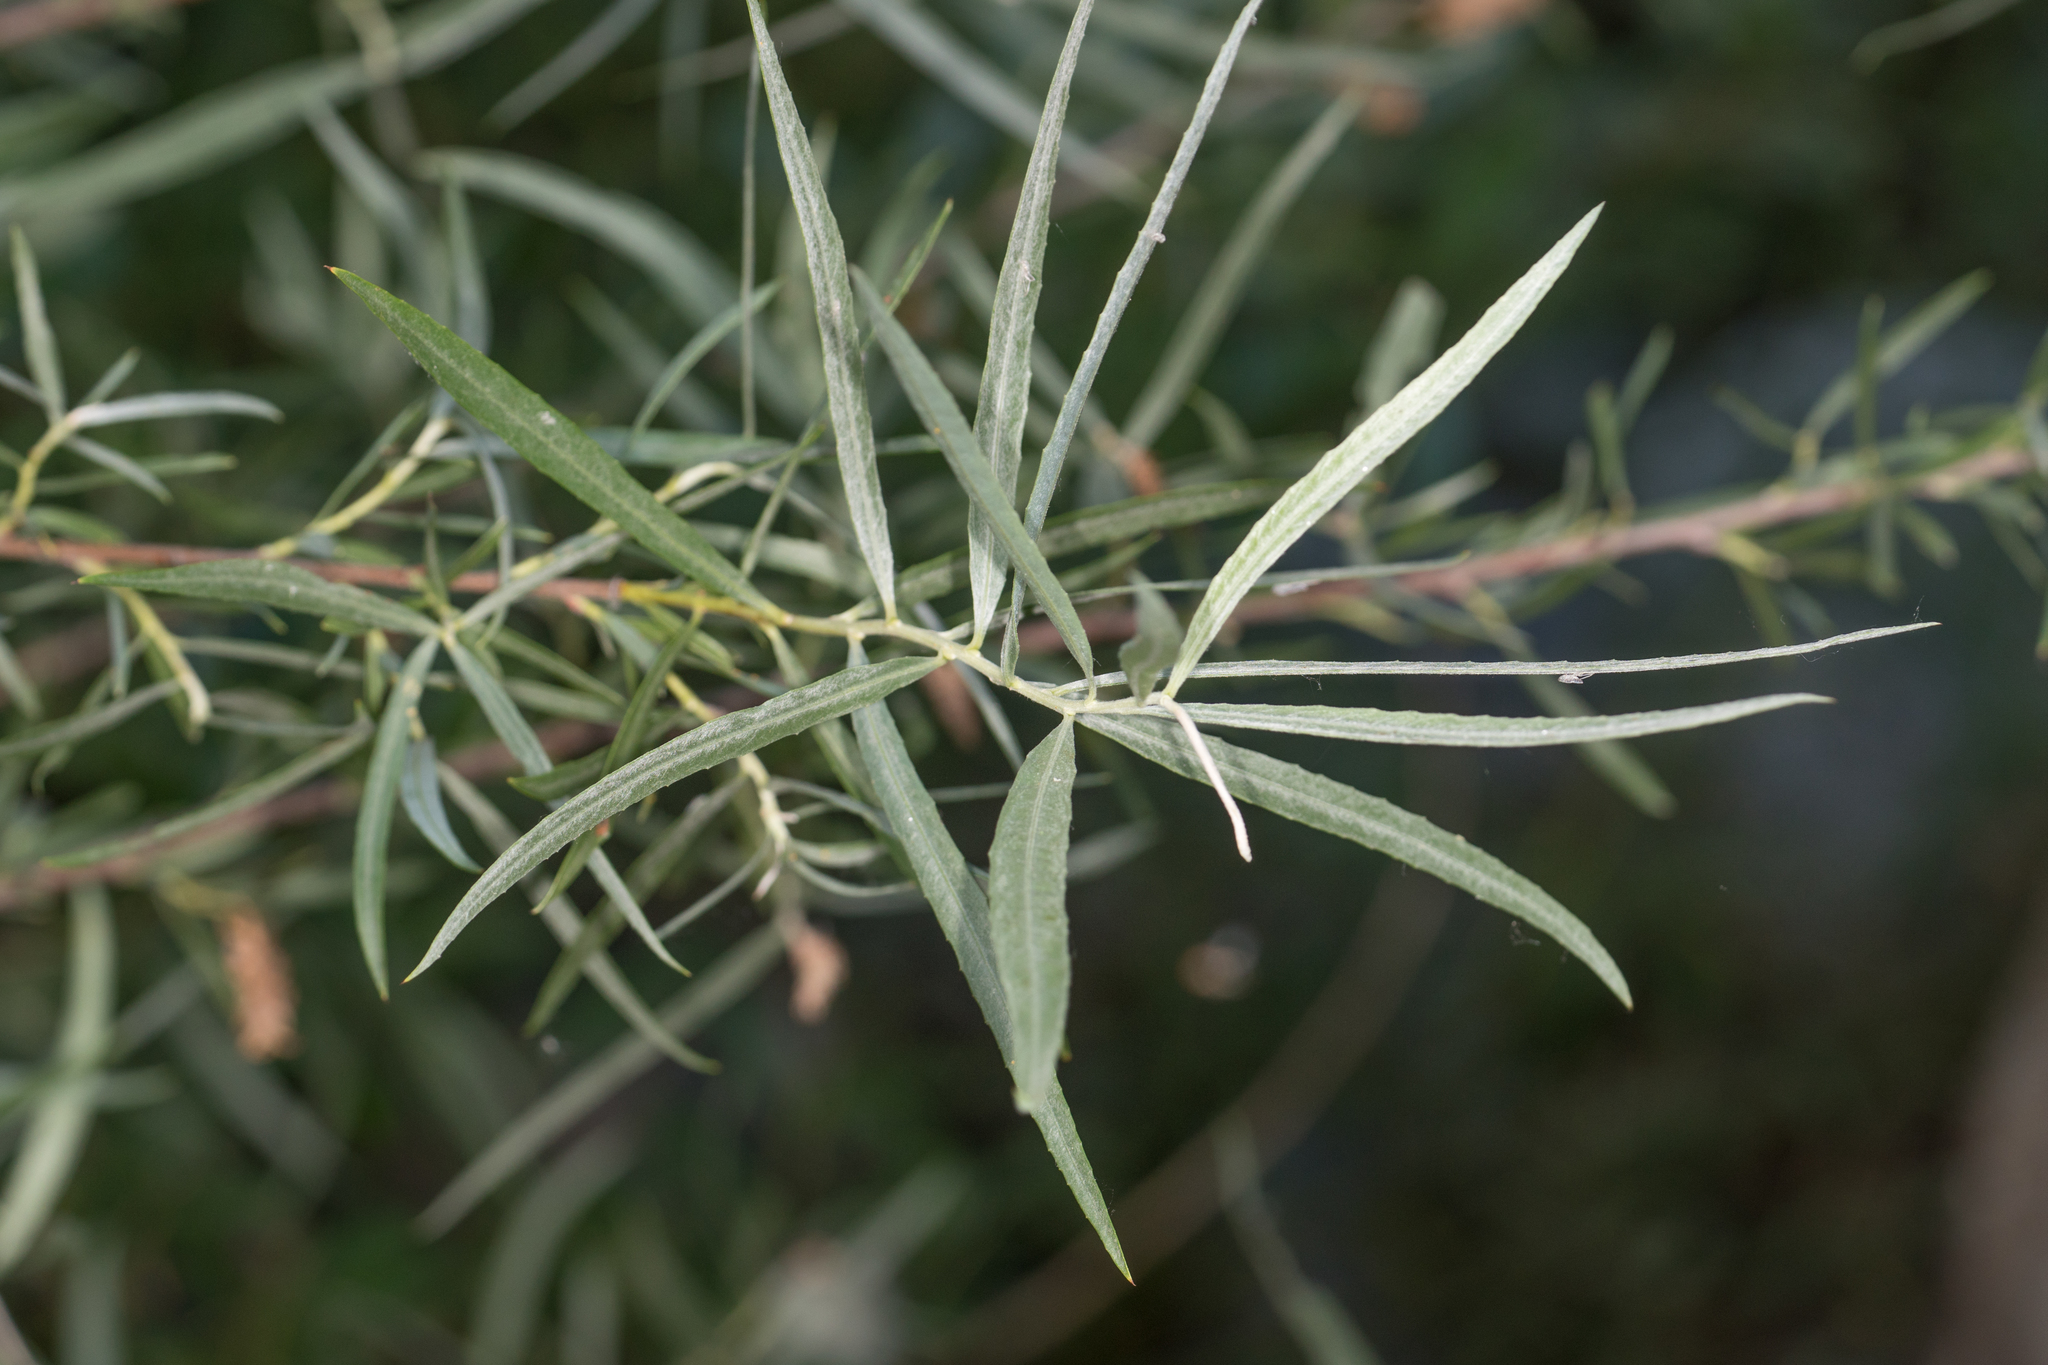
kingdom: Plantae
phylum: Tracheophyta
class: Magnoliopsida
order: Malpighiales
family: Salicaceae
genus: Salix
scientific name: Salix exigua
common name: Coyote willow
